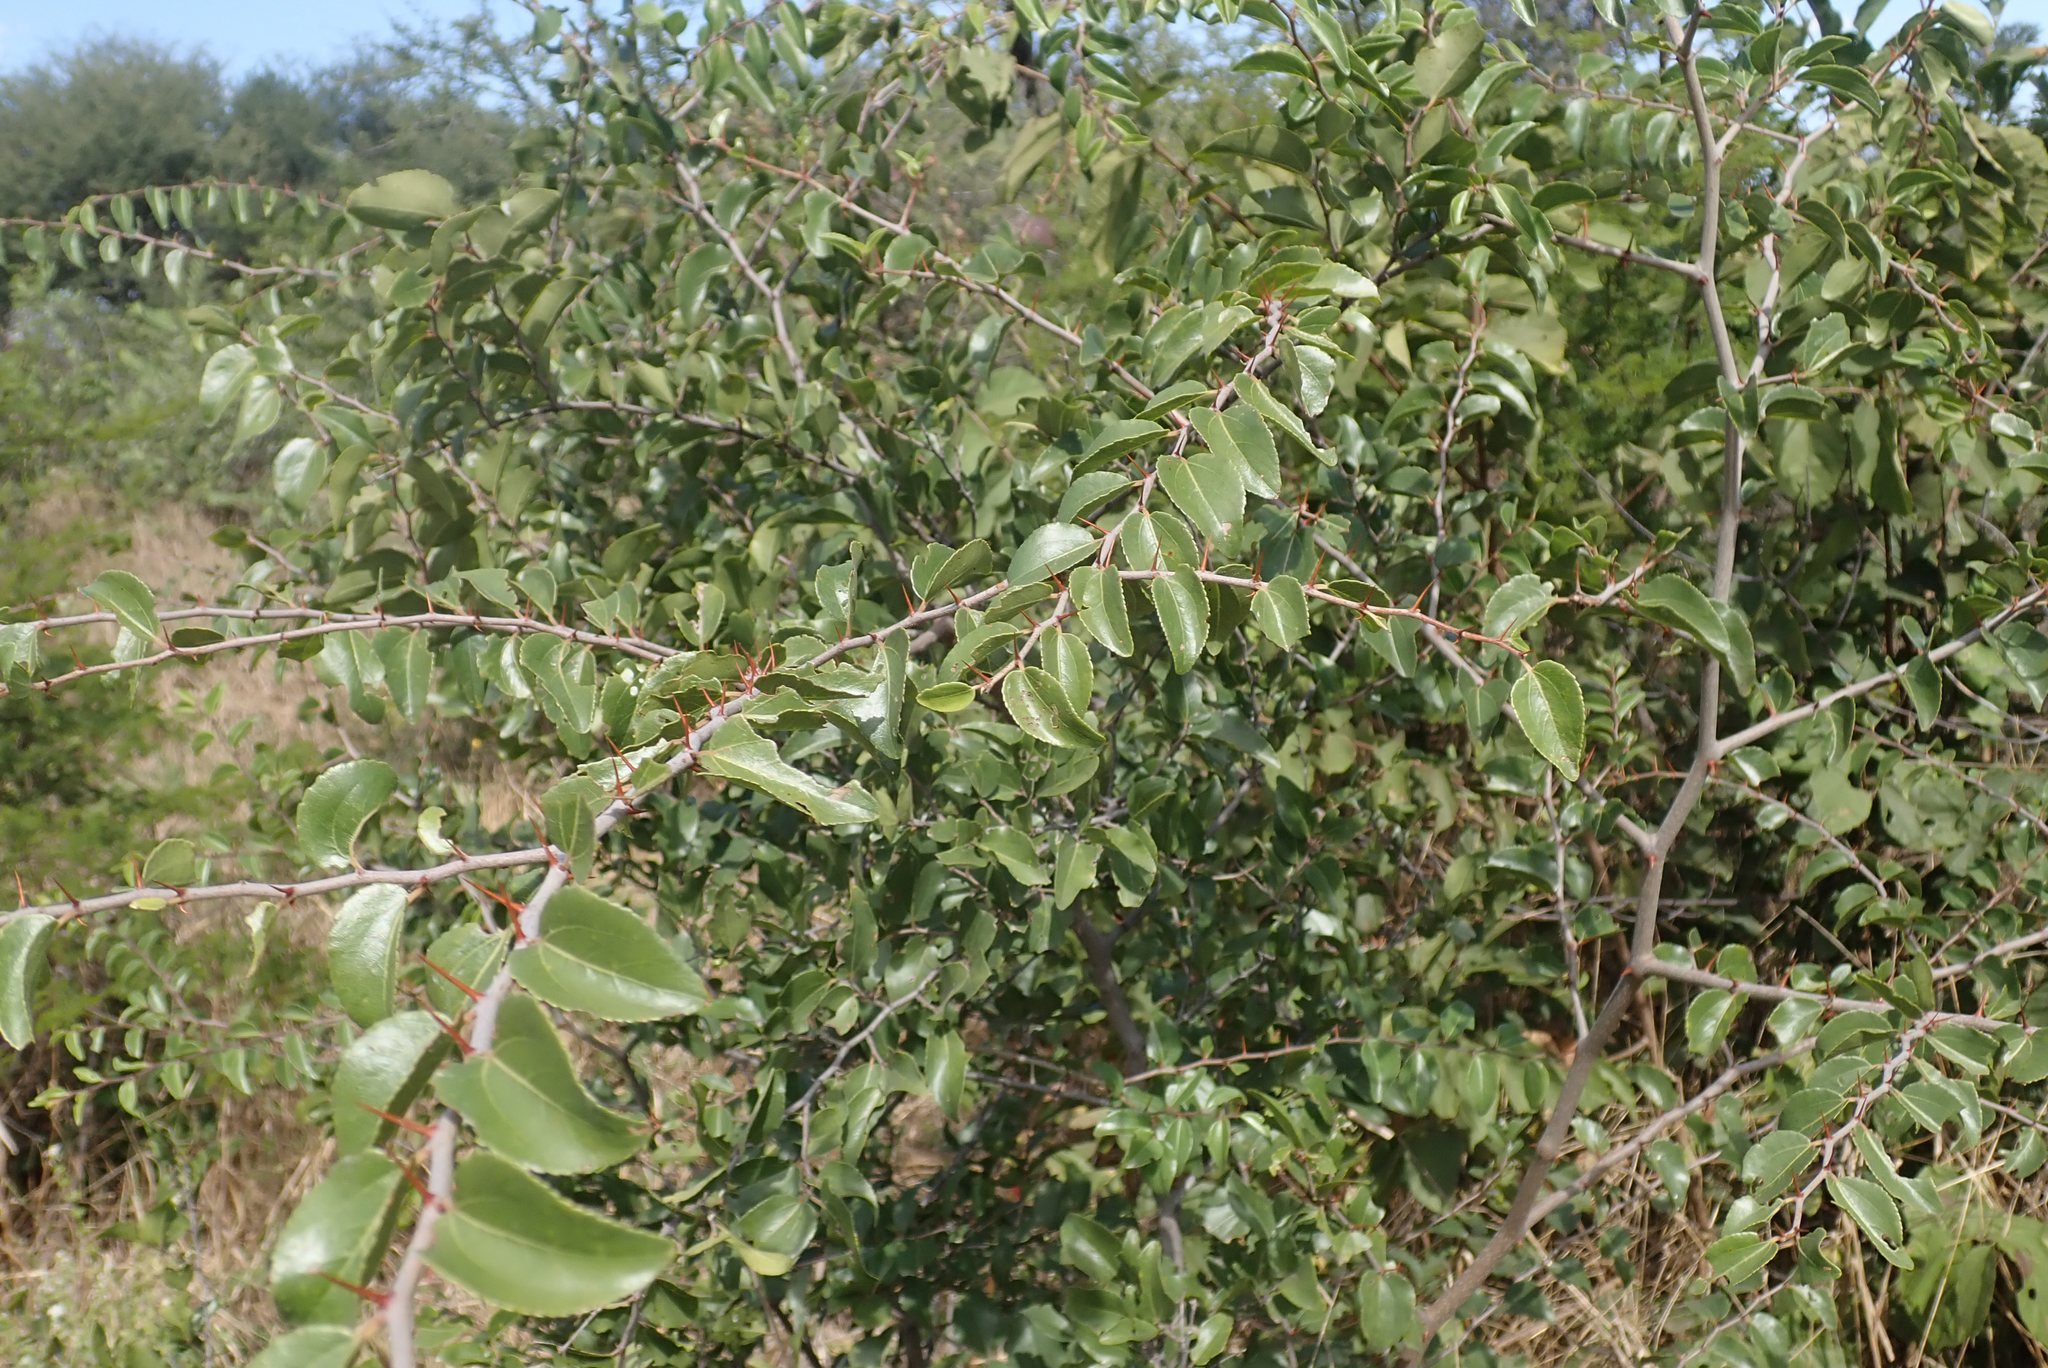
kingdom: Plantae
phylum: Tracheophyta
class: Magnoliopsida
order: Rosales
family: Rhamnaceae
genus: Ziziphus
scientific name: Ziziphus mucronata
